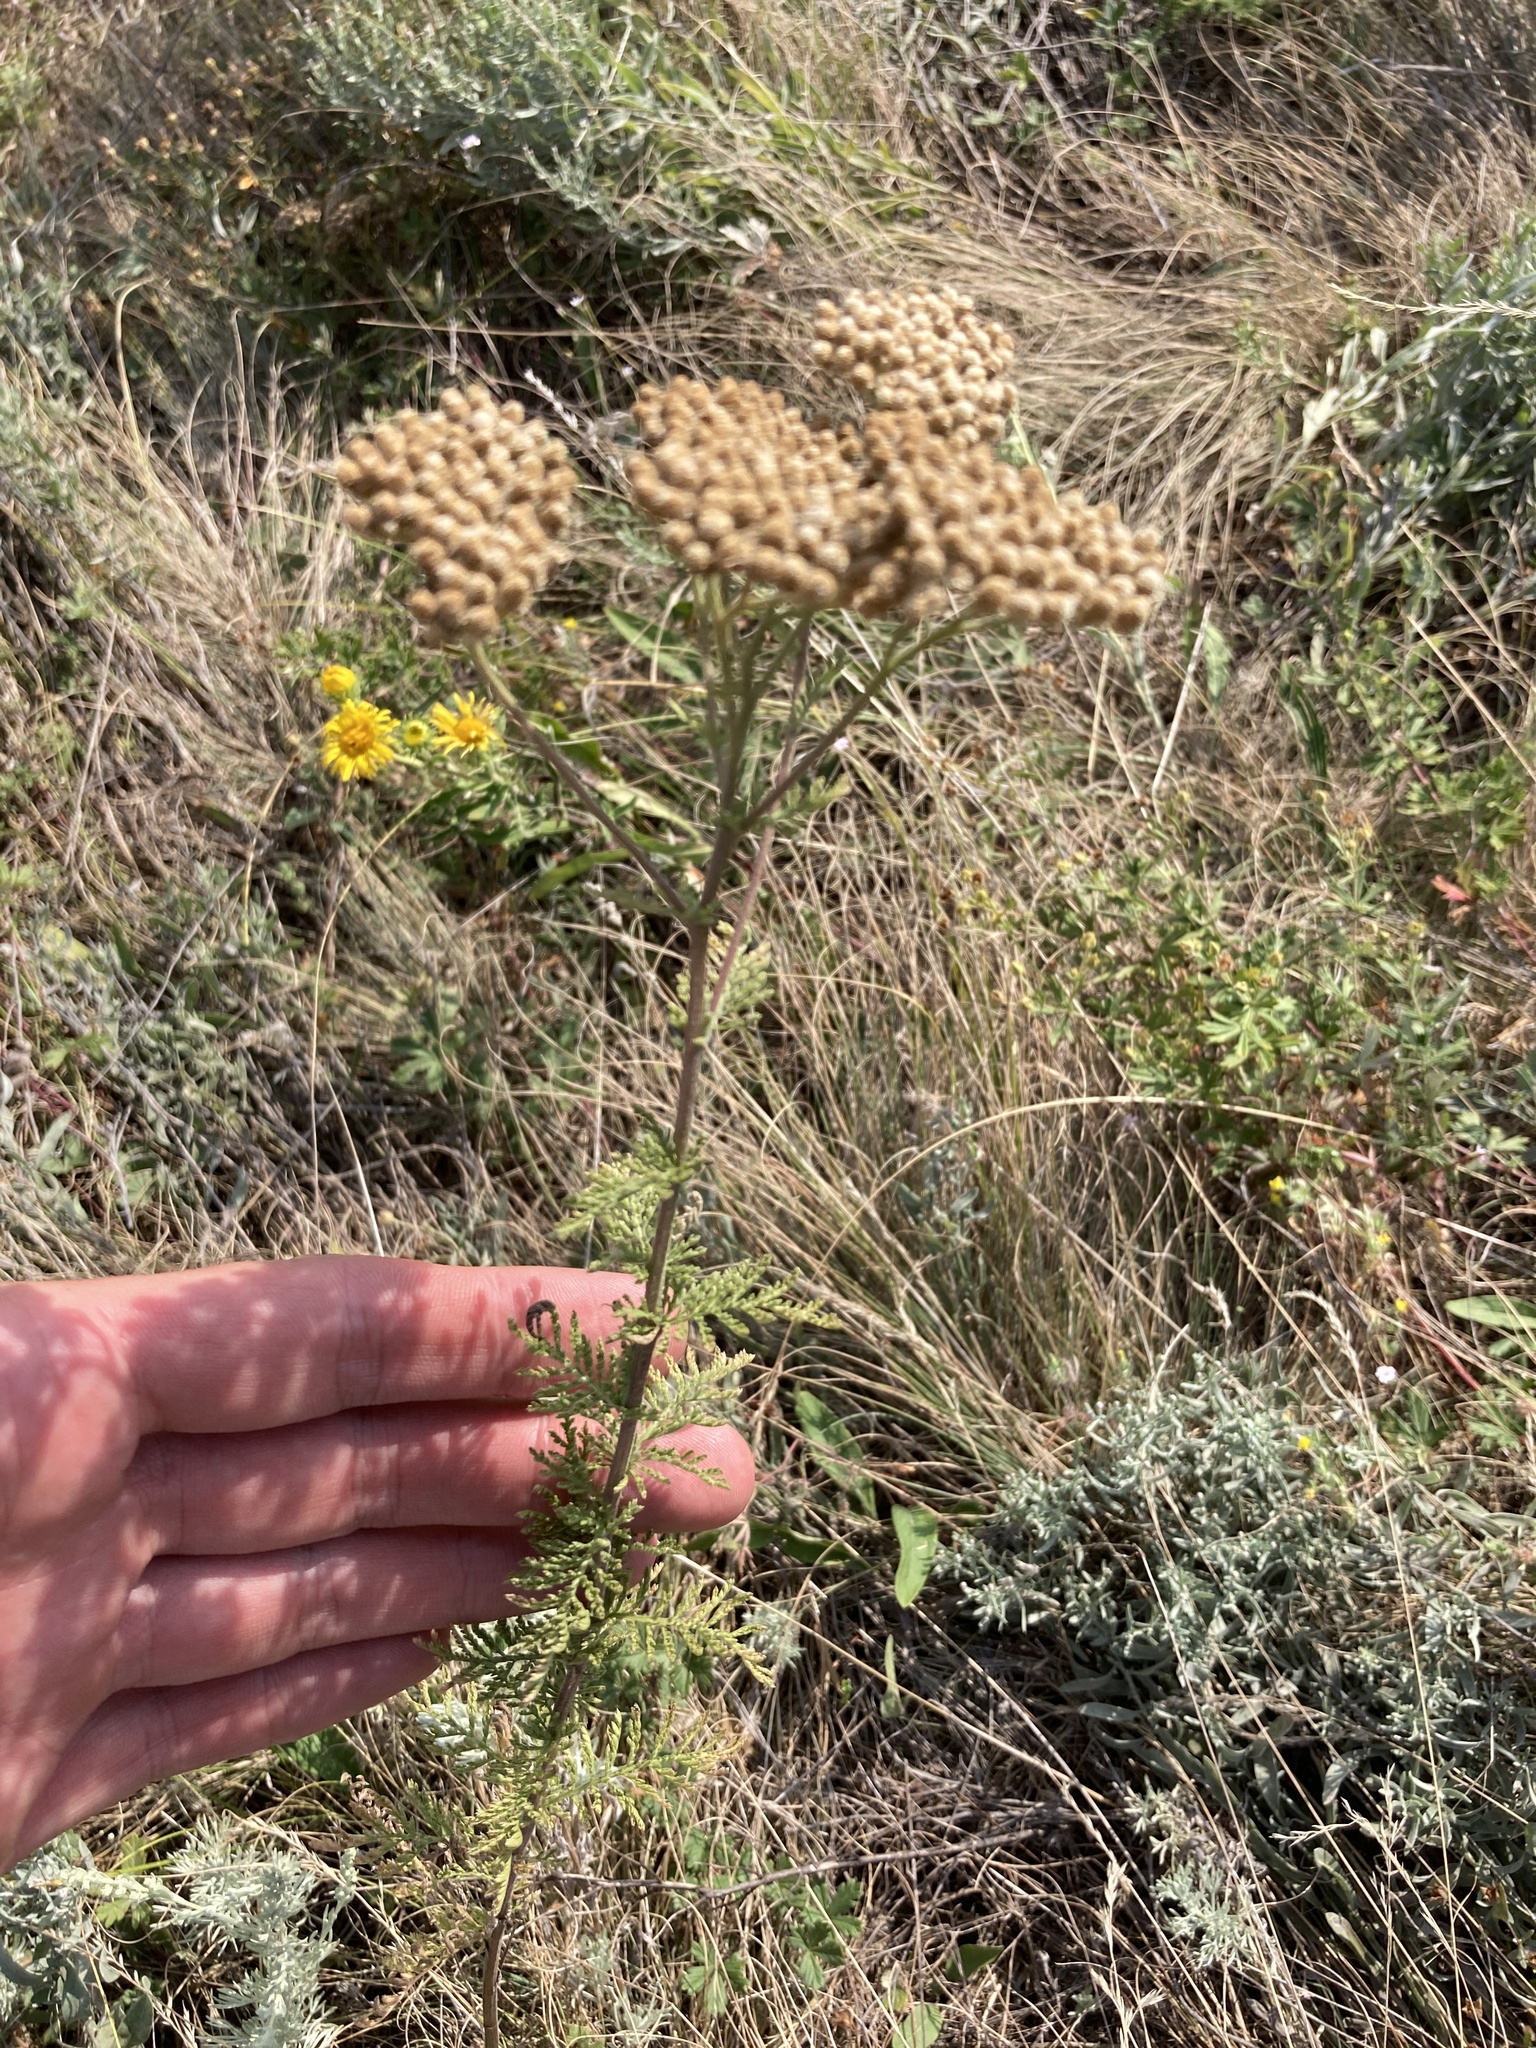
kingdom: Plantae
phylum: Tracheophyta
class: Magnoliopsida
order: Asterales
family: Asteraceae
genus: Achillea
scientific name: Achillea nobilis
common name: Noble yarrow
